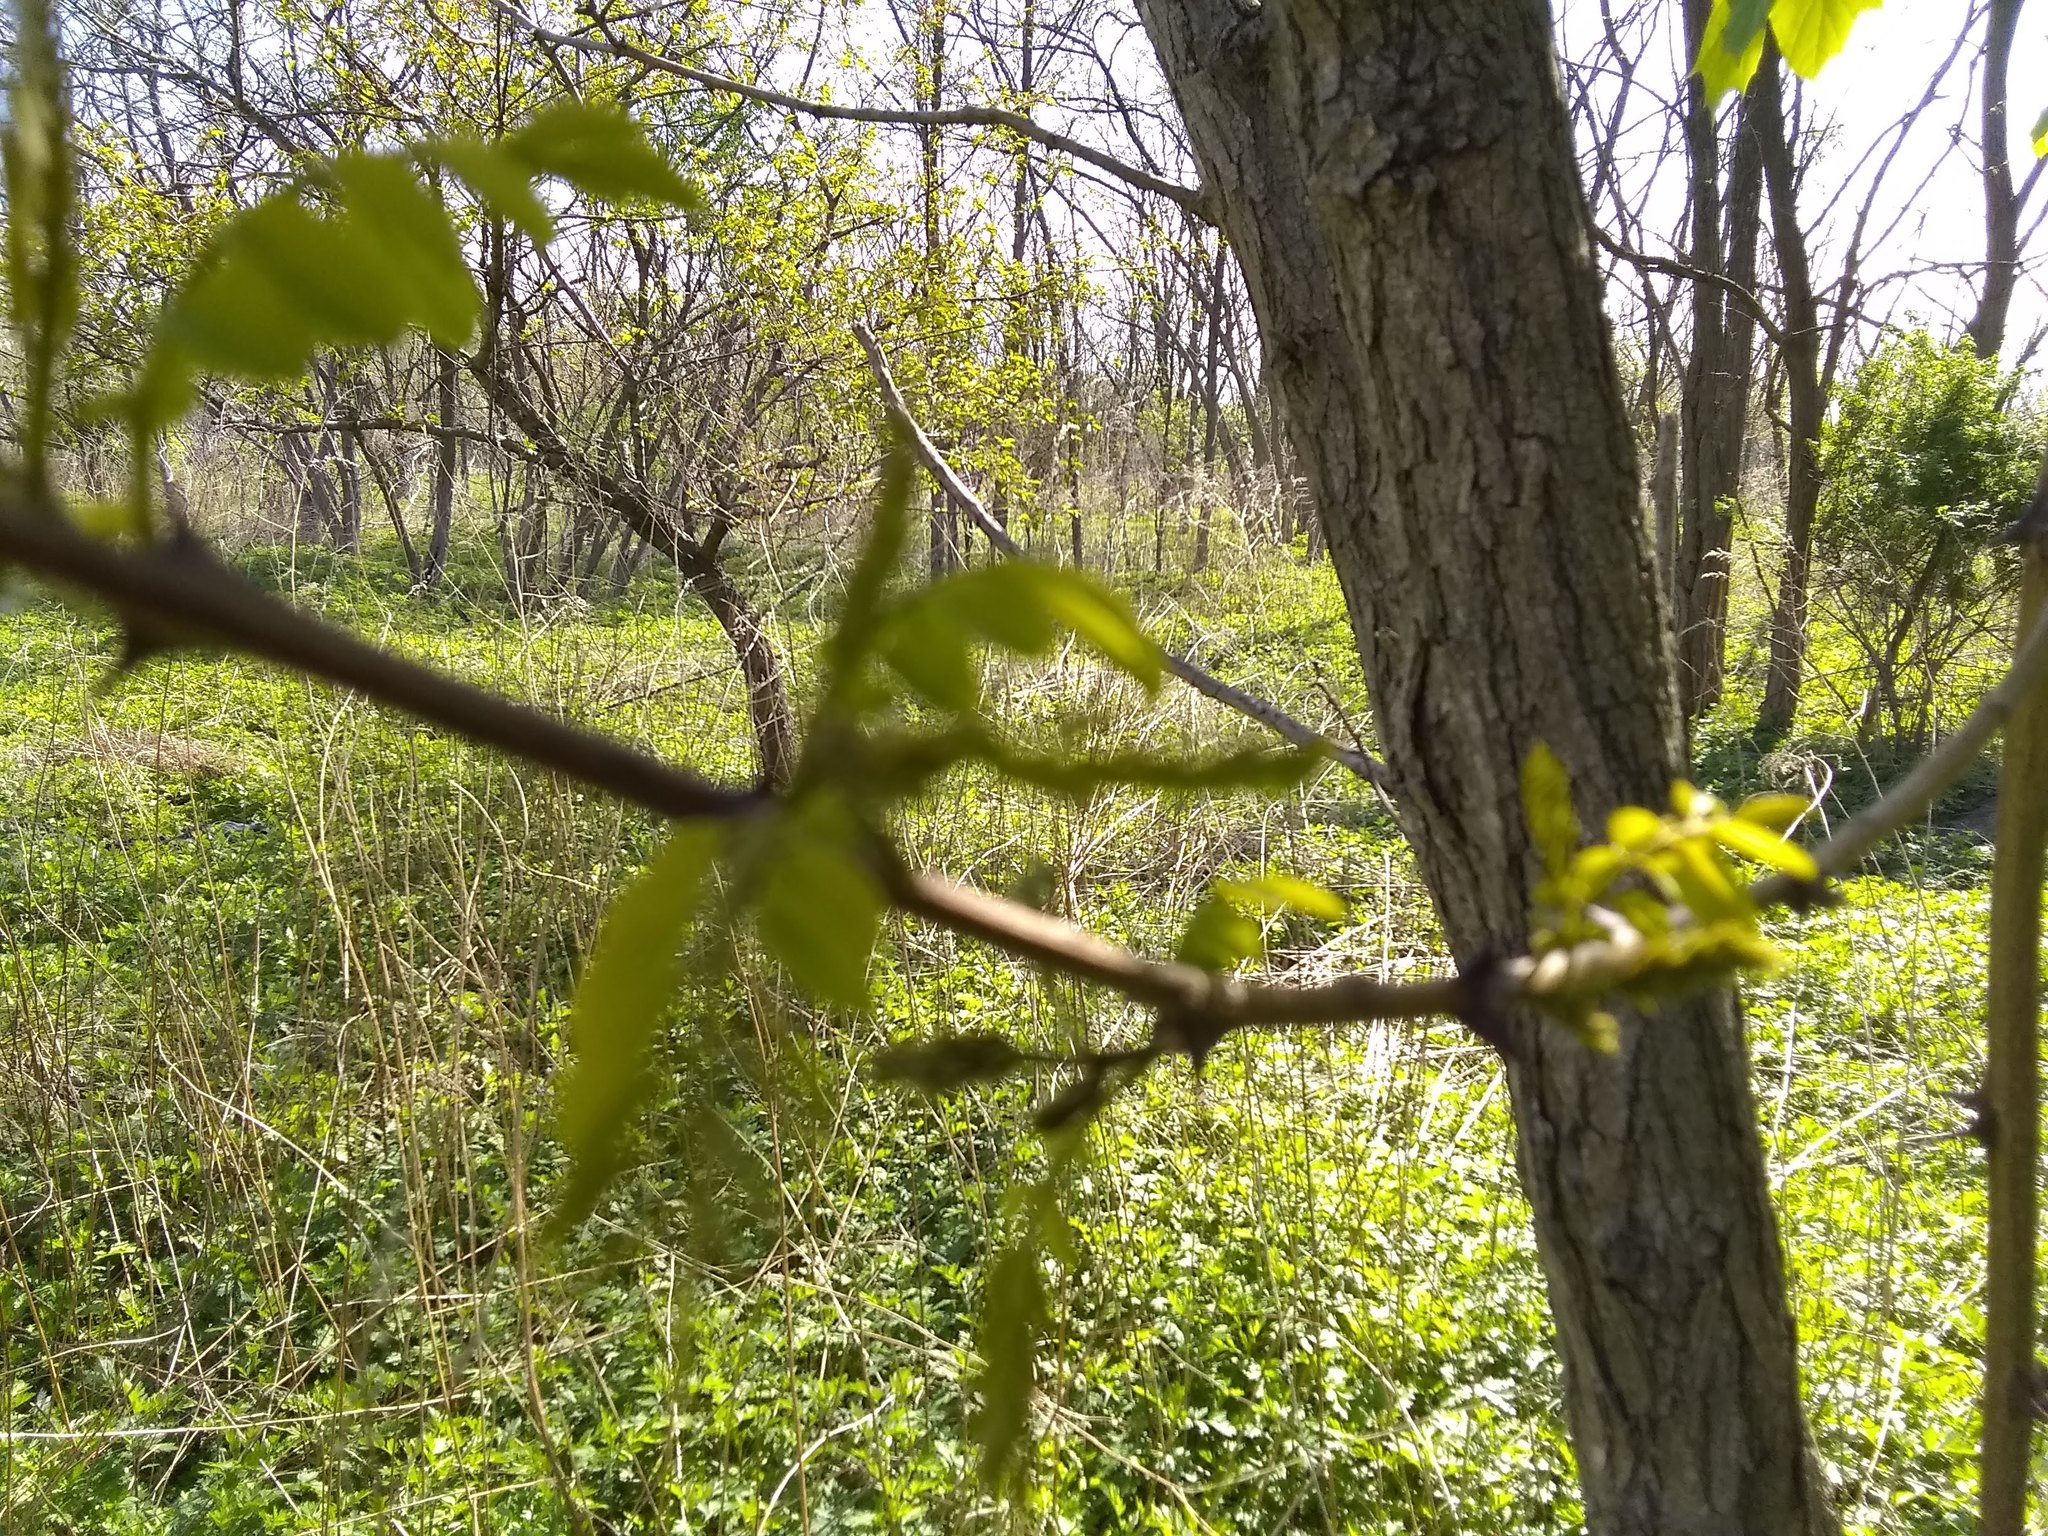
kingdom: Plantae
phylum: Tracheophyta
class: Magnoliopsida
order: Fabales
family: Fabaceae
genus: Robinia
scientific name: Robinia pseudoacacia
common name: Black locust
